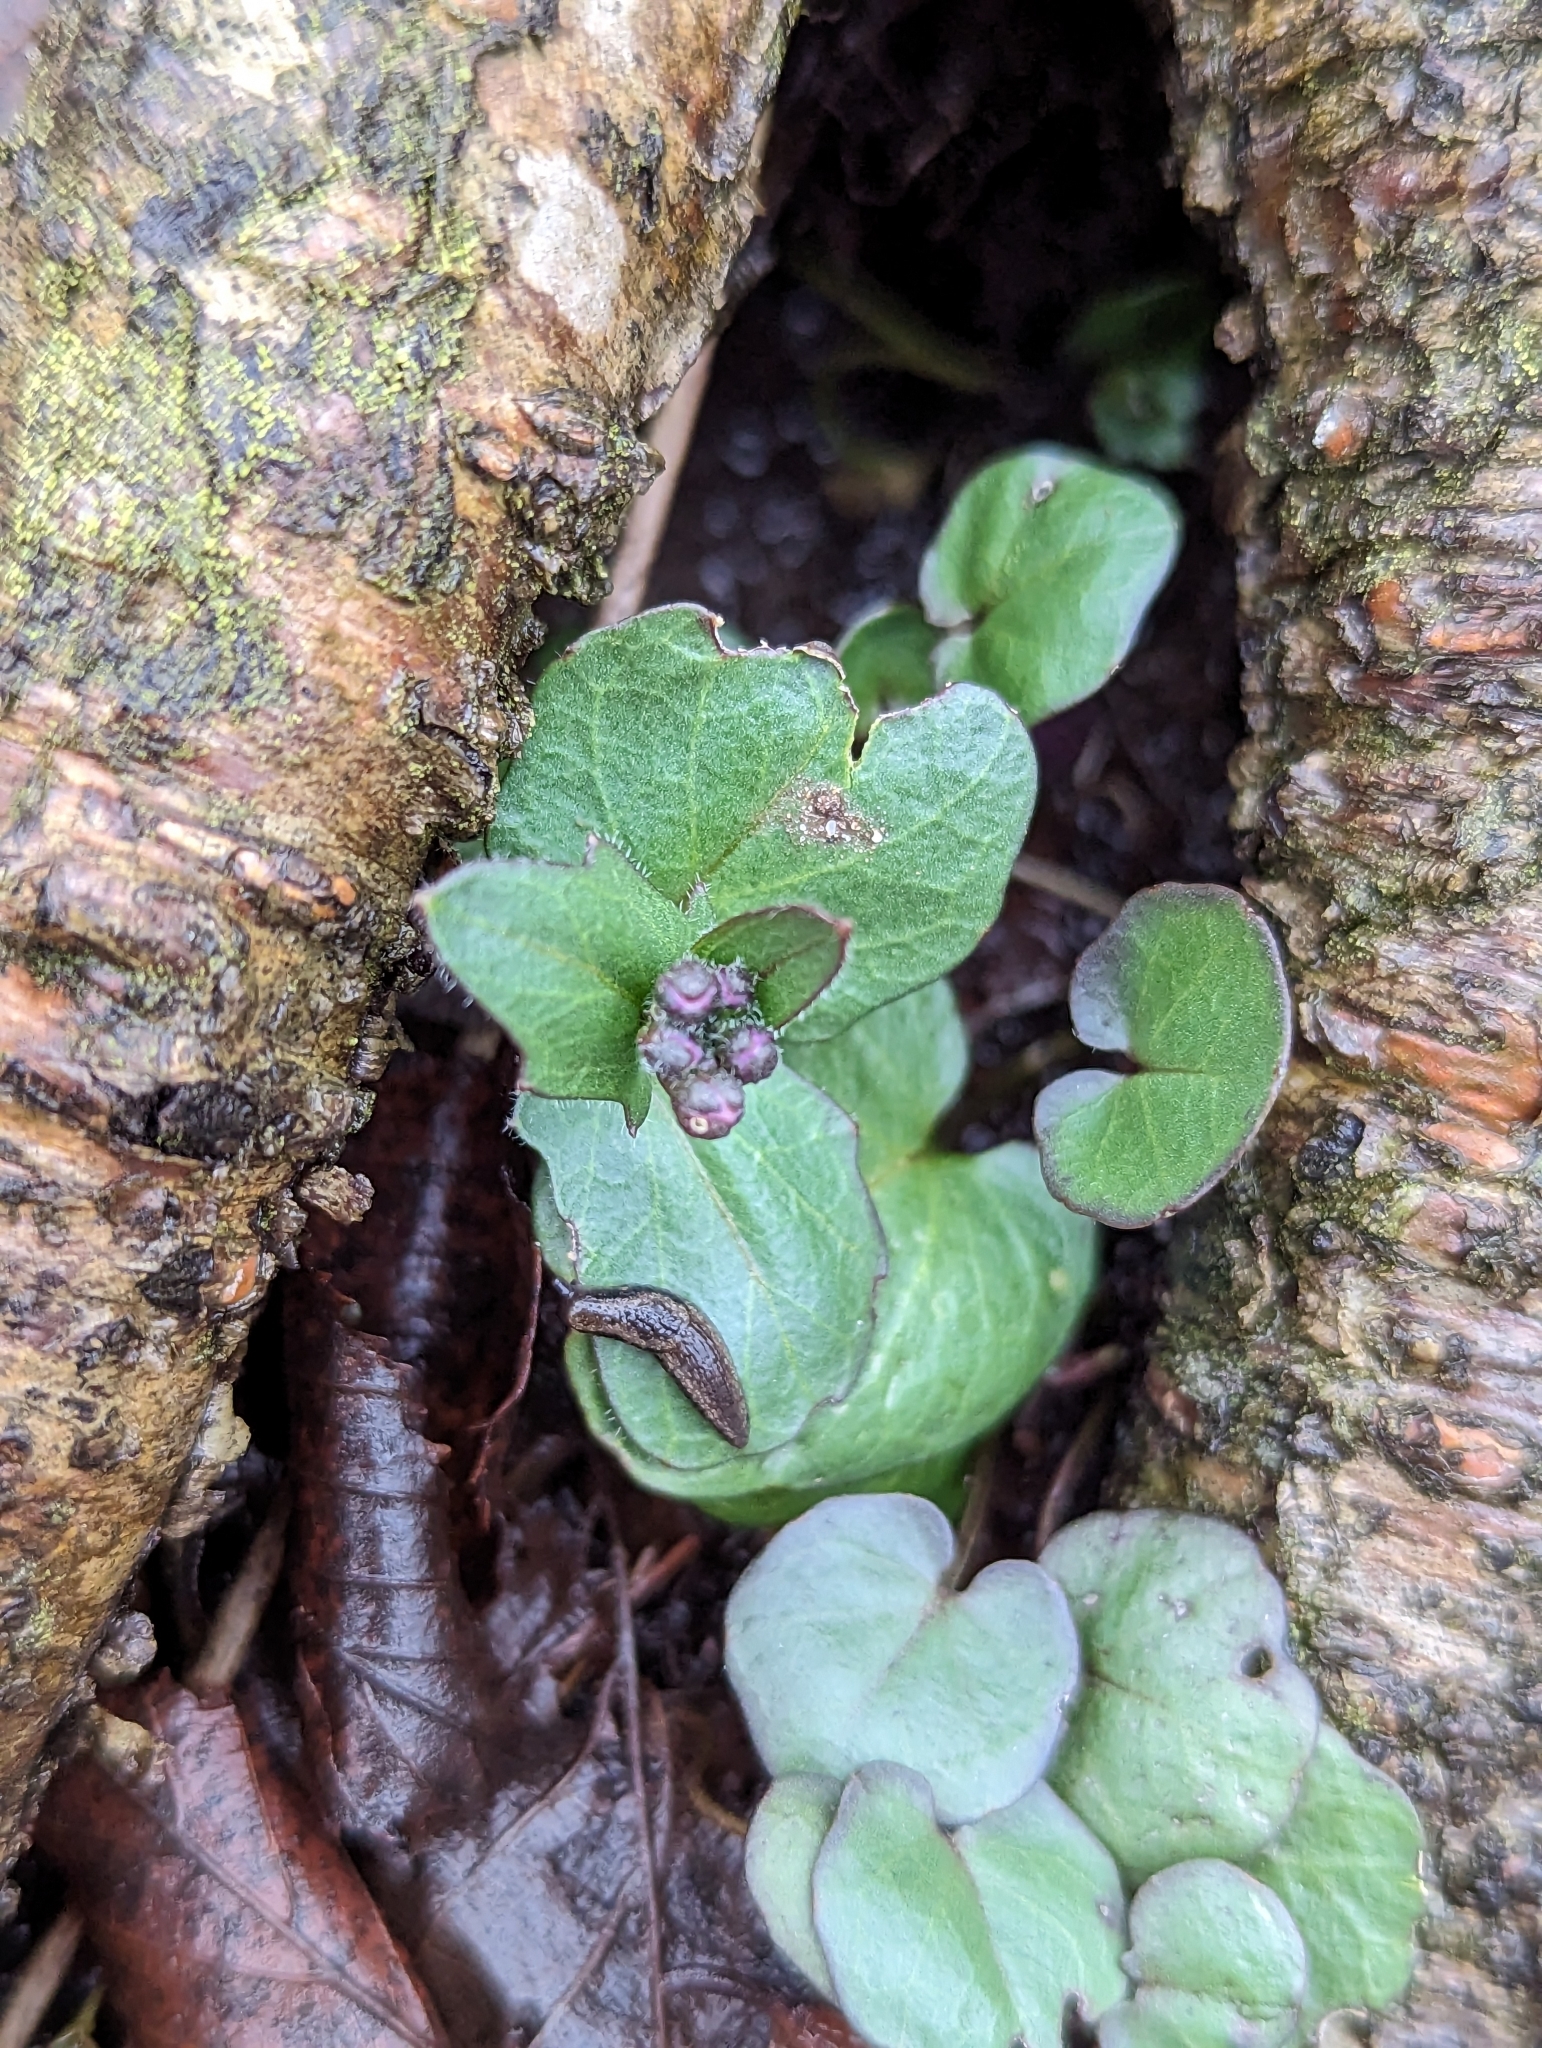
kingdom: Plantae
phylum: Tracheophyta
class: Magnoliopsida
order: Brassicales
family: Brassicaceae
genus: Cardamine
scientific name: Cardamine douglassii
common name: Purple cress
